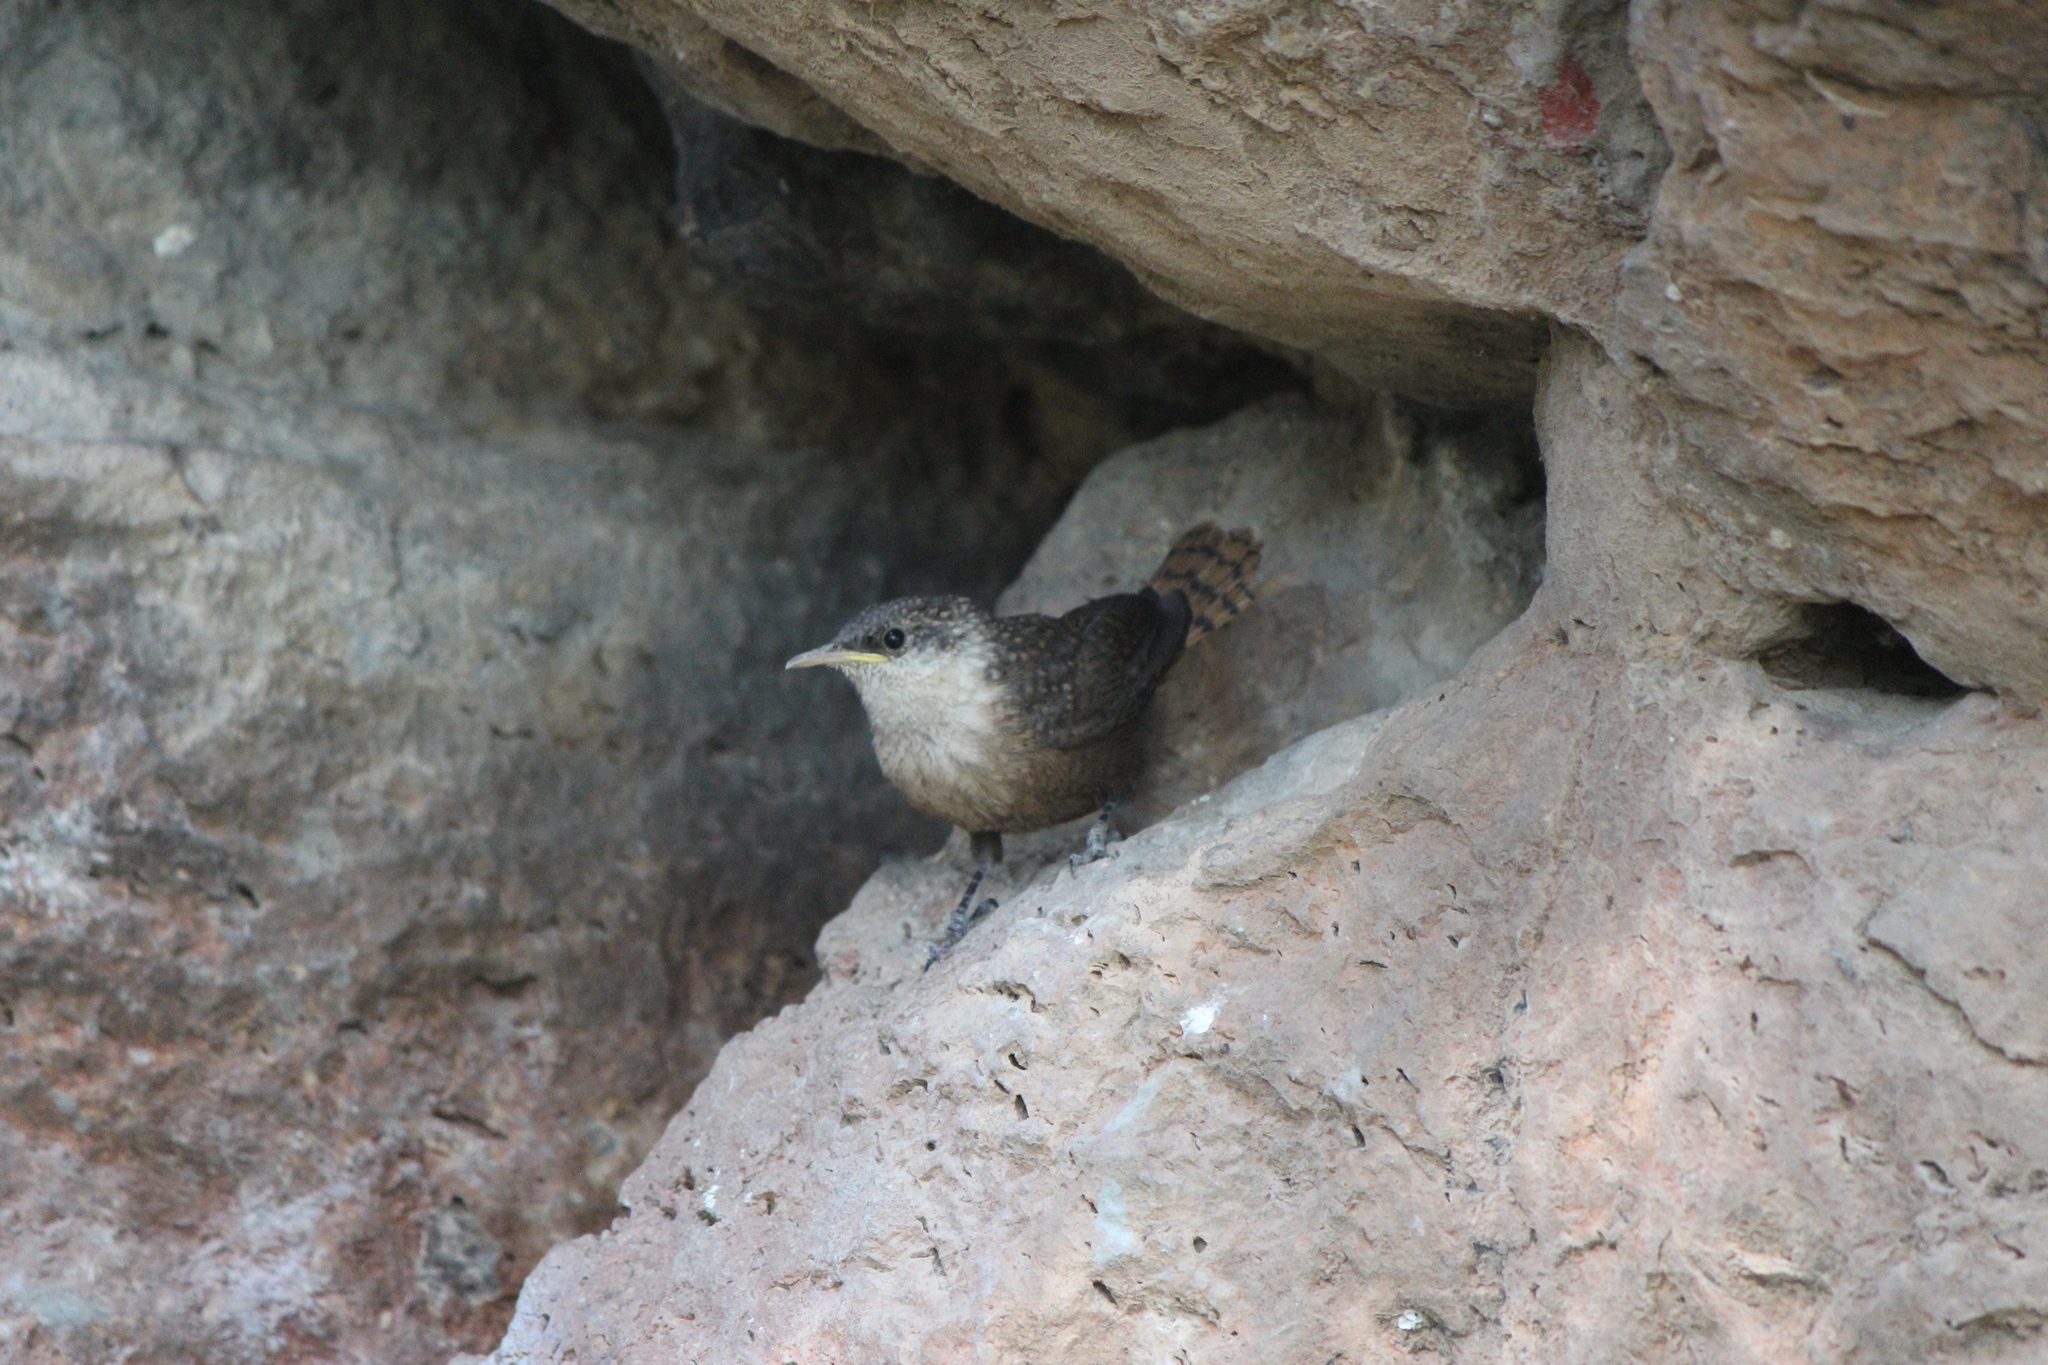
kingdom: Animalia
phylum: Chordata
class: Aves
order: Passeriformes
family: Troglodytidae
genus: Catherpes
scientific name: Catherpes mexicanus
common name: Canyon wren
